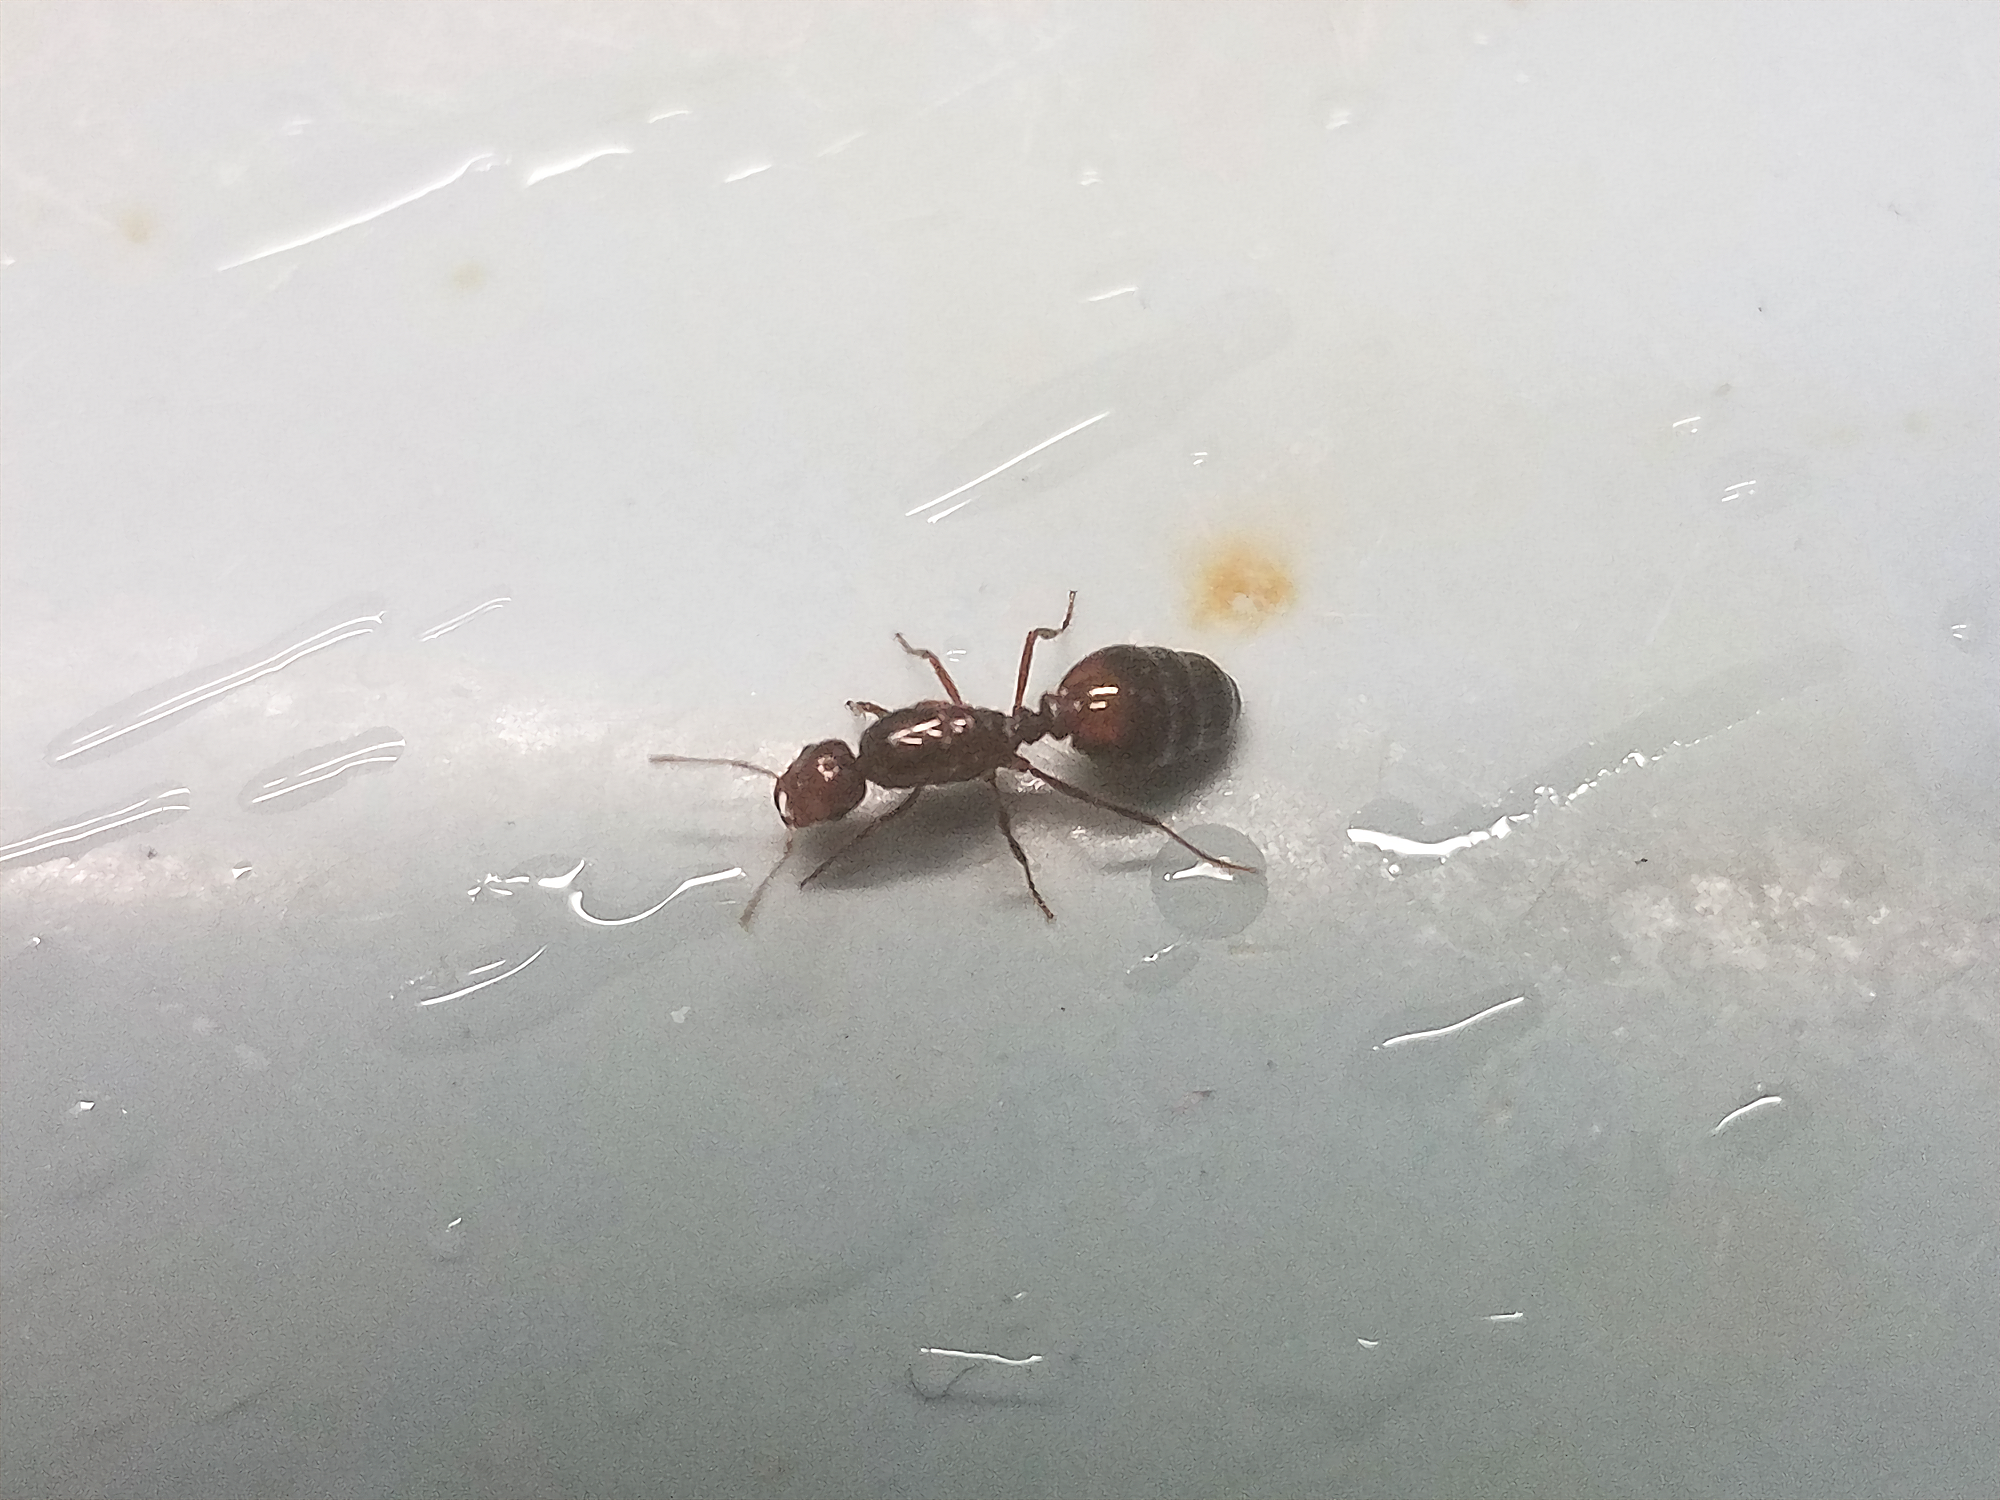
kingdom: Animalia
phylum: Arthropoda
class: Insecta
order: Hymenoptera
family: Formicidae
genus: Solenopsis
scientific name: Solenopsis invicta
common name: Red imported fire ant
